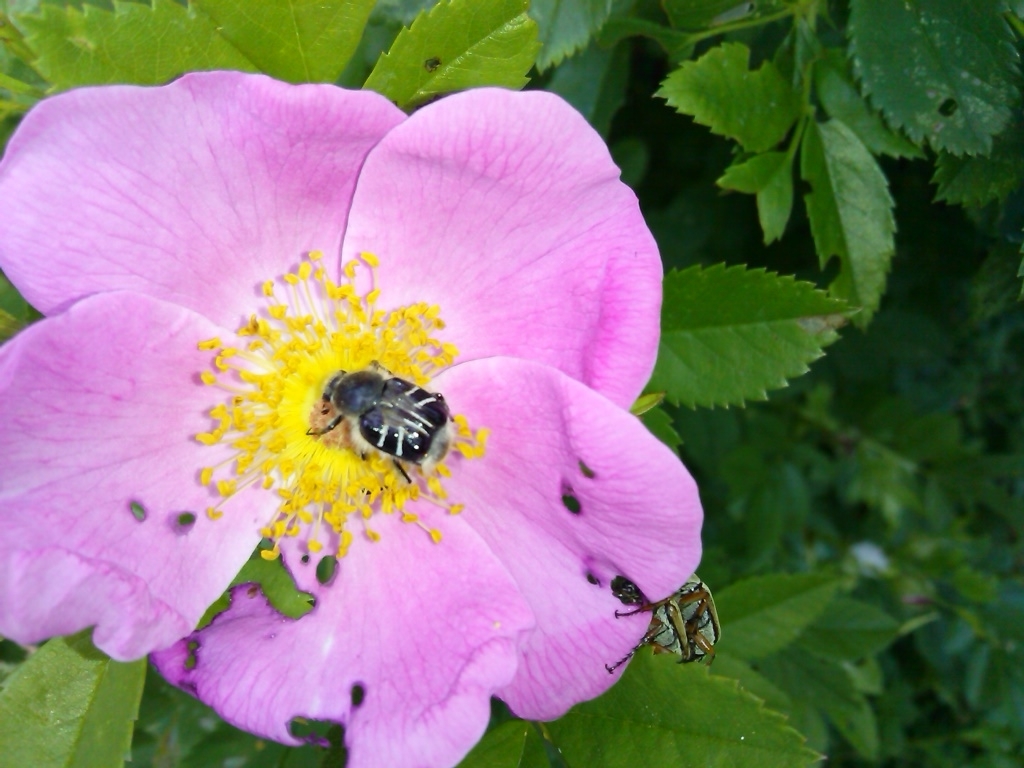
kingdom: Animalia
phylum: Arthropoda
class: Insecta
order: Coleoptera
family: Scarabaeidae
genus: Trichiotinus
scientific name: Trichiotinus assimilis
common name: Bee-mimic beetle
